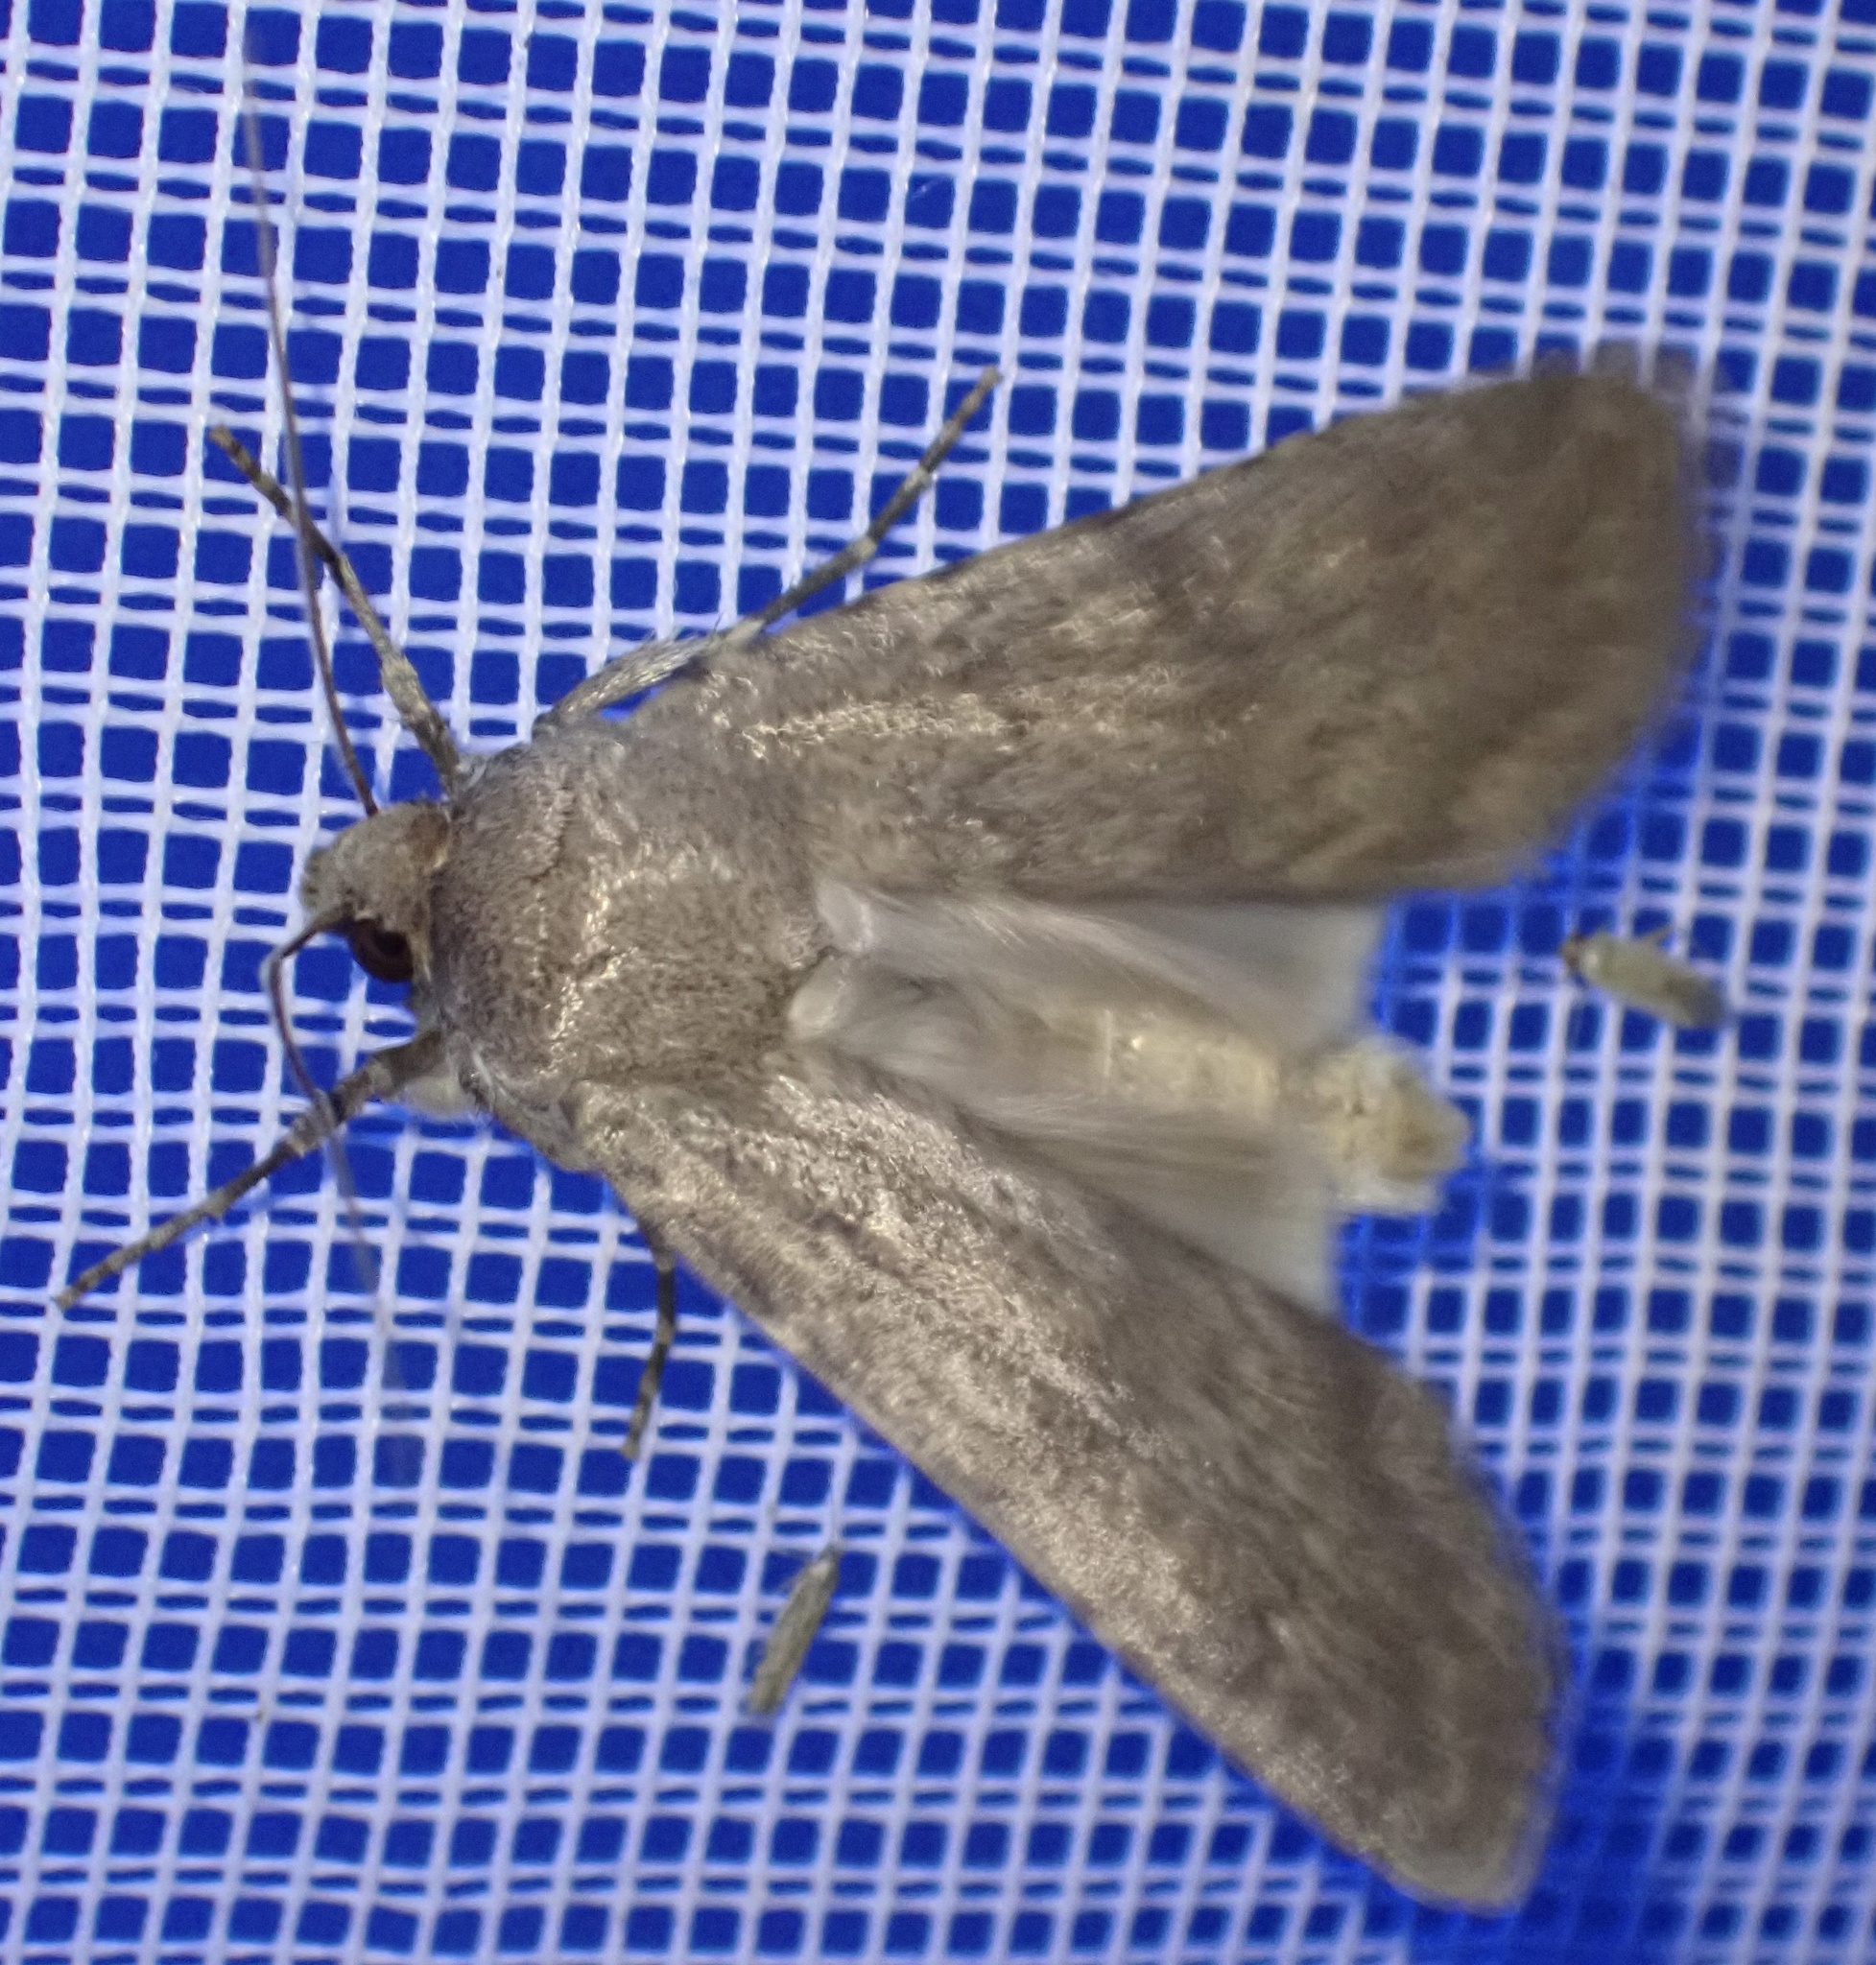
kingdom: Animalia
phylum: Arthropoda
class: Insecta
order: Lepidoptera
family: Noctuidae
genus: Actebia
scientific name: Actebia photophila
